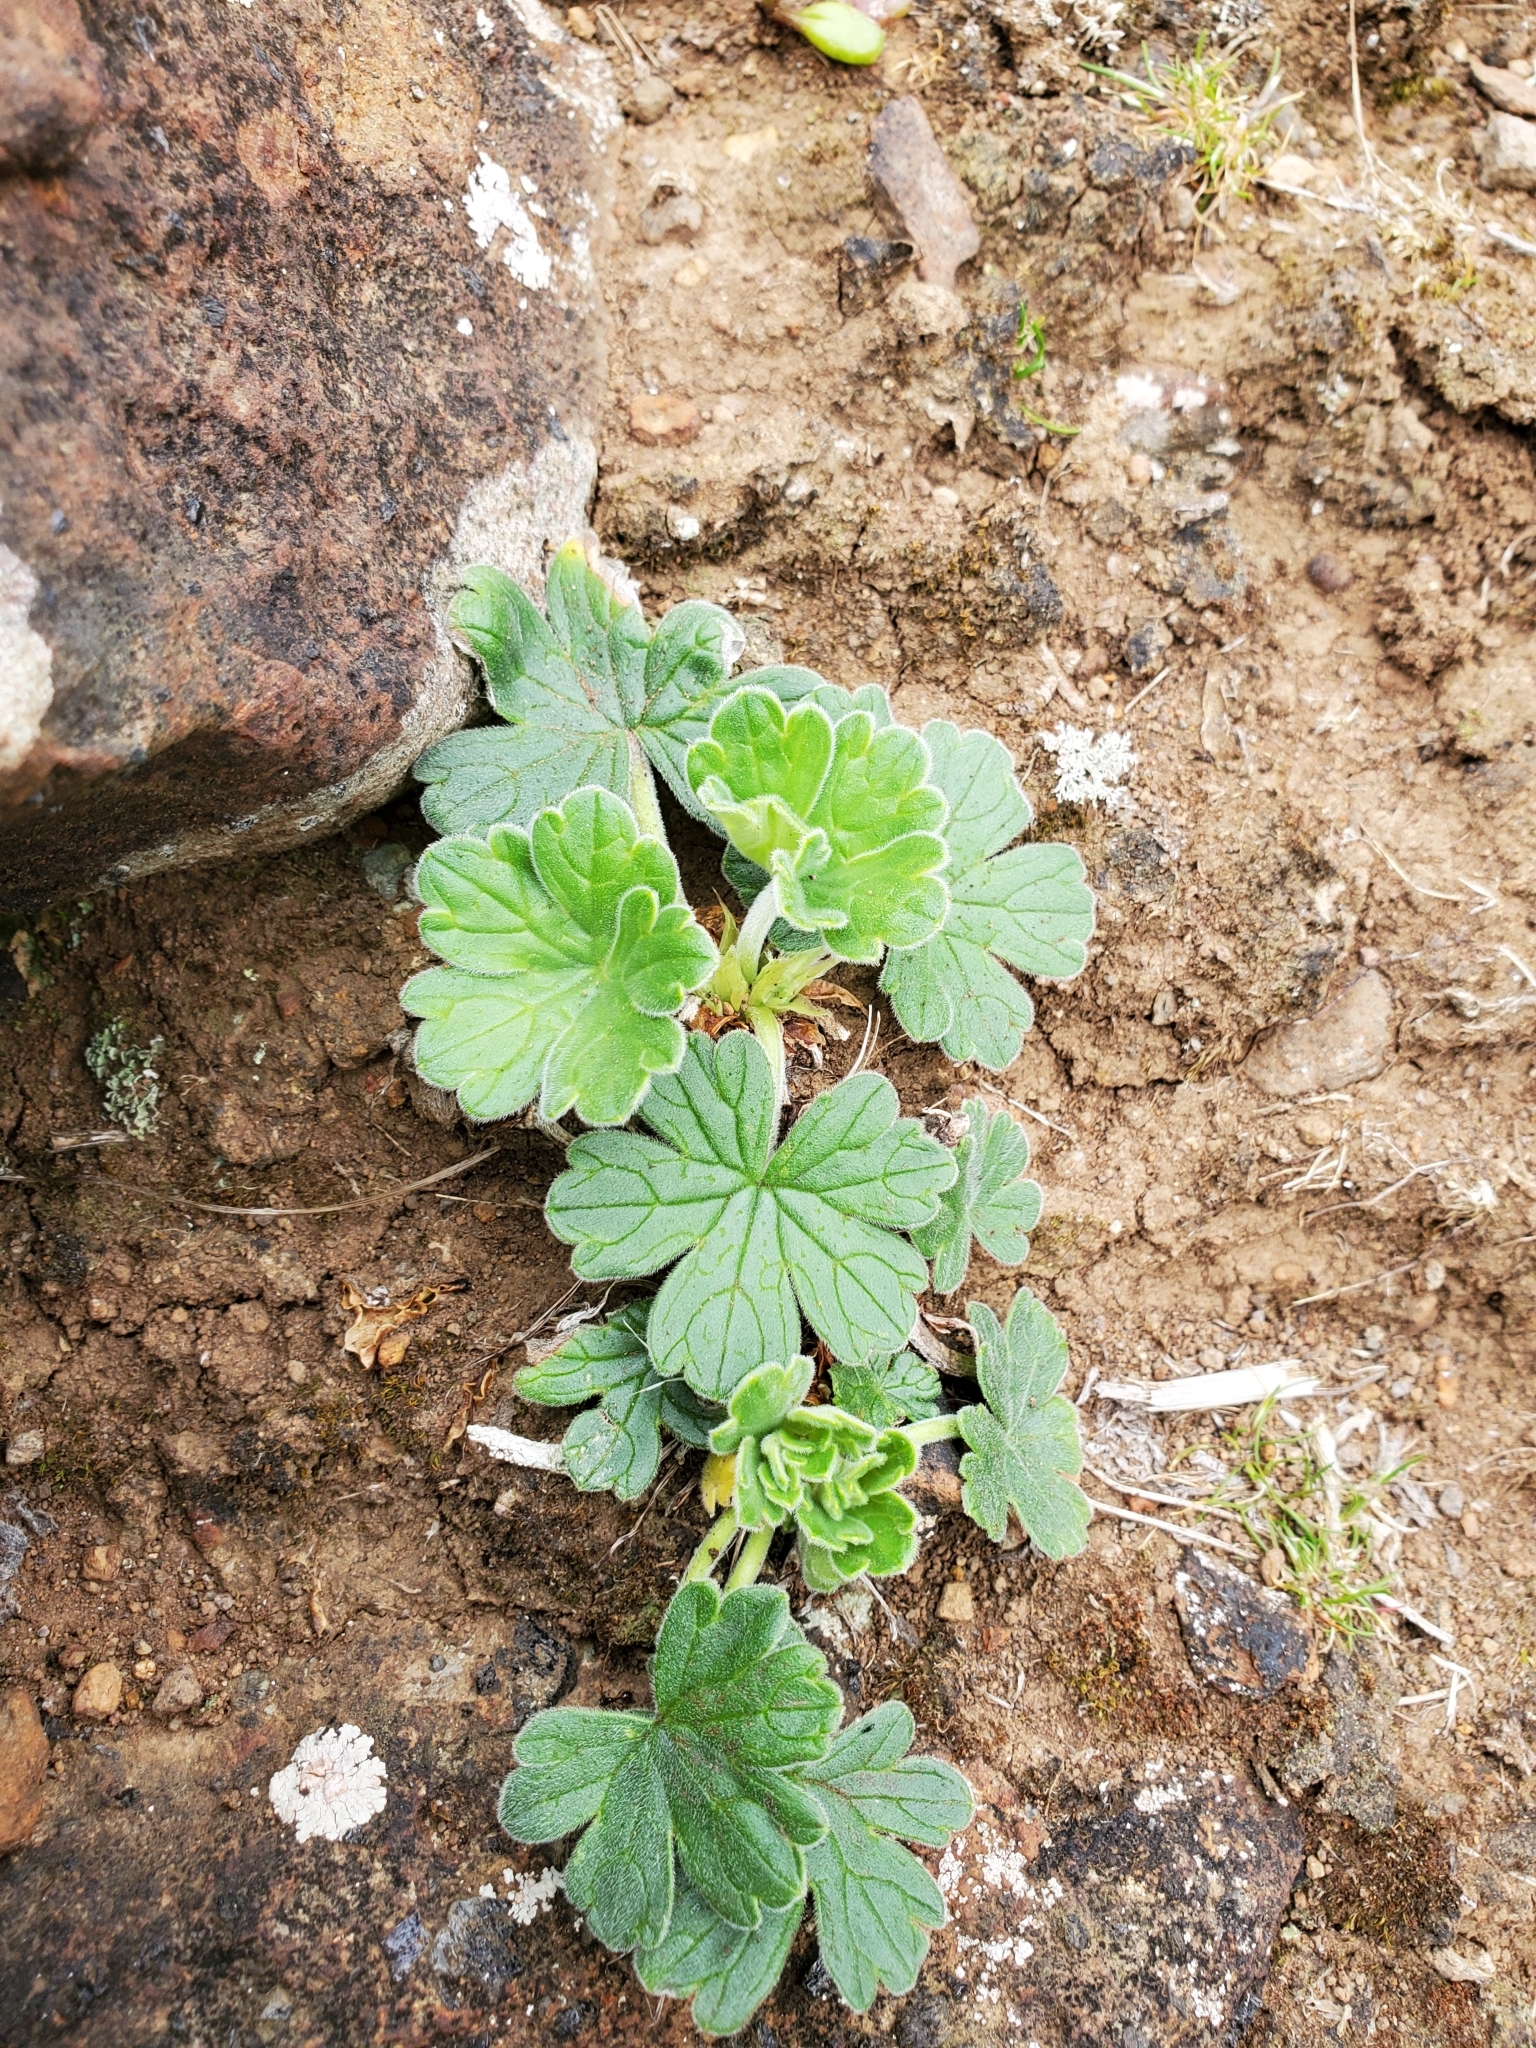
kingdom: Plantae
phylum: Tracheophyta
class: Magnoliopsida
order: Geraniales
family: Geraniaceae
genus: Geranium
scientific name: Geranium traversii
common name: Cranesbill
